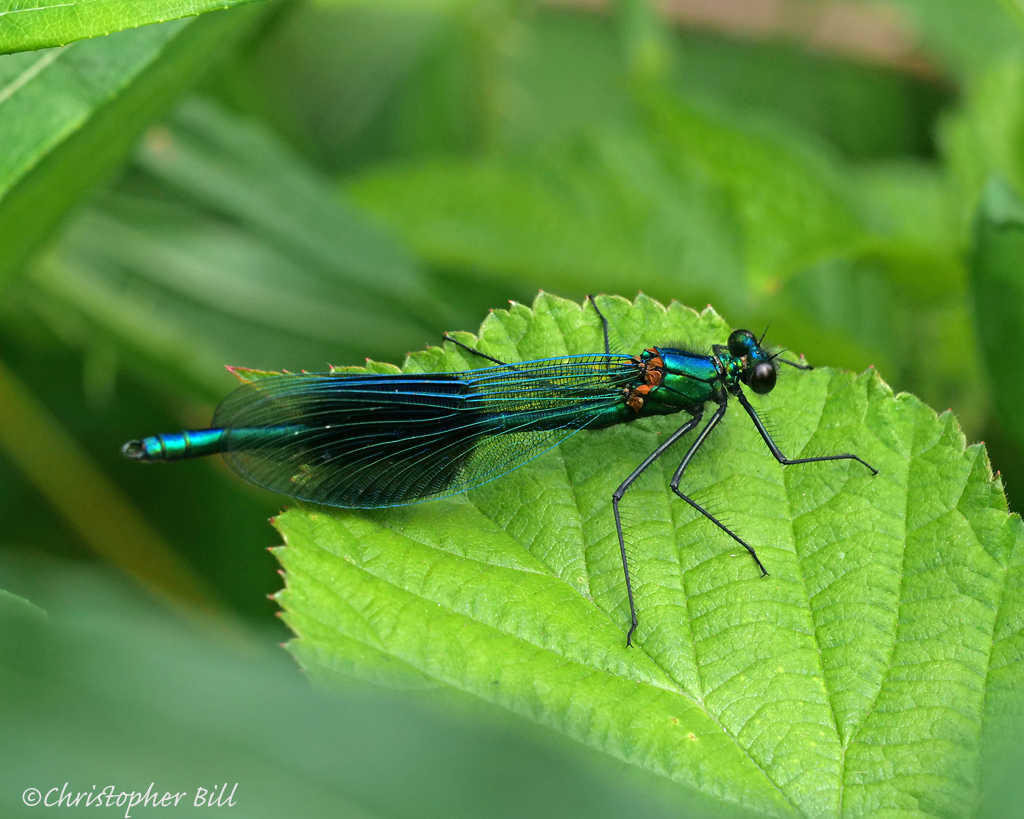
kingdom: Animalia
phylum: Arthropoda
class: Insecta
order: Odonata
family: Calopterygidae
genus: Calopteryx
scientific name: Calopteryx splendens
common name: Banded demoiselle
